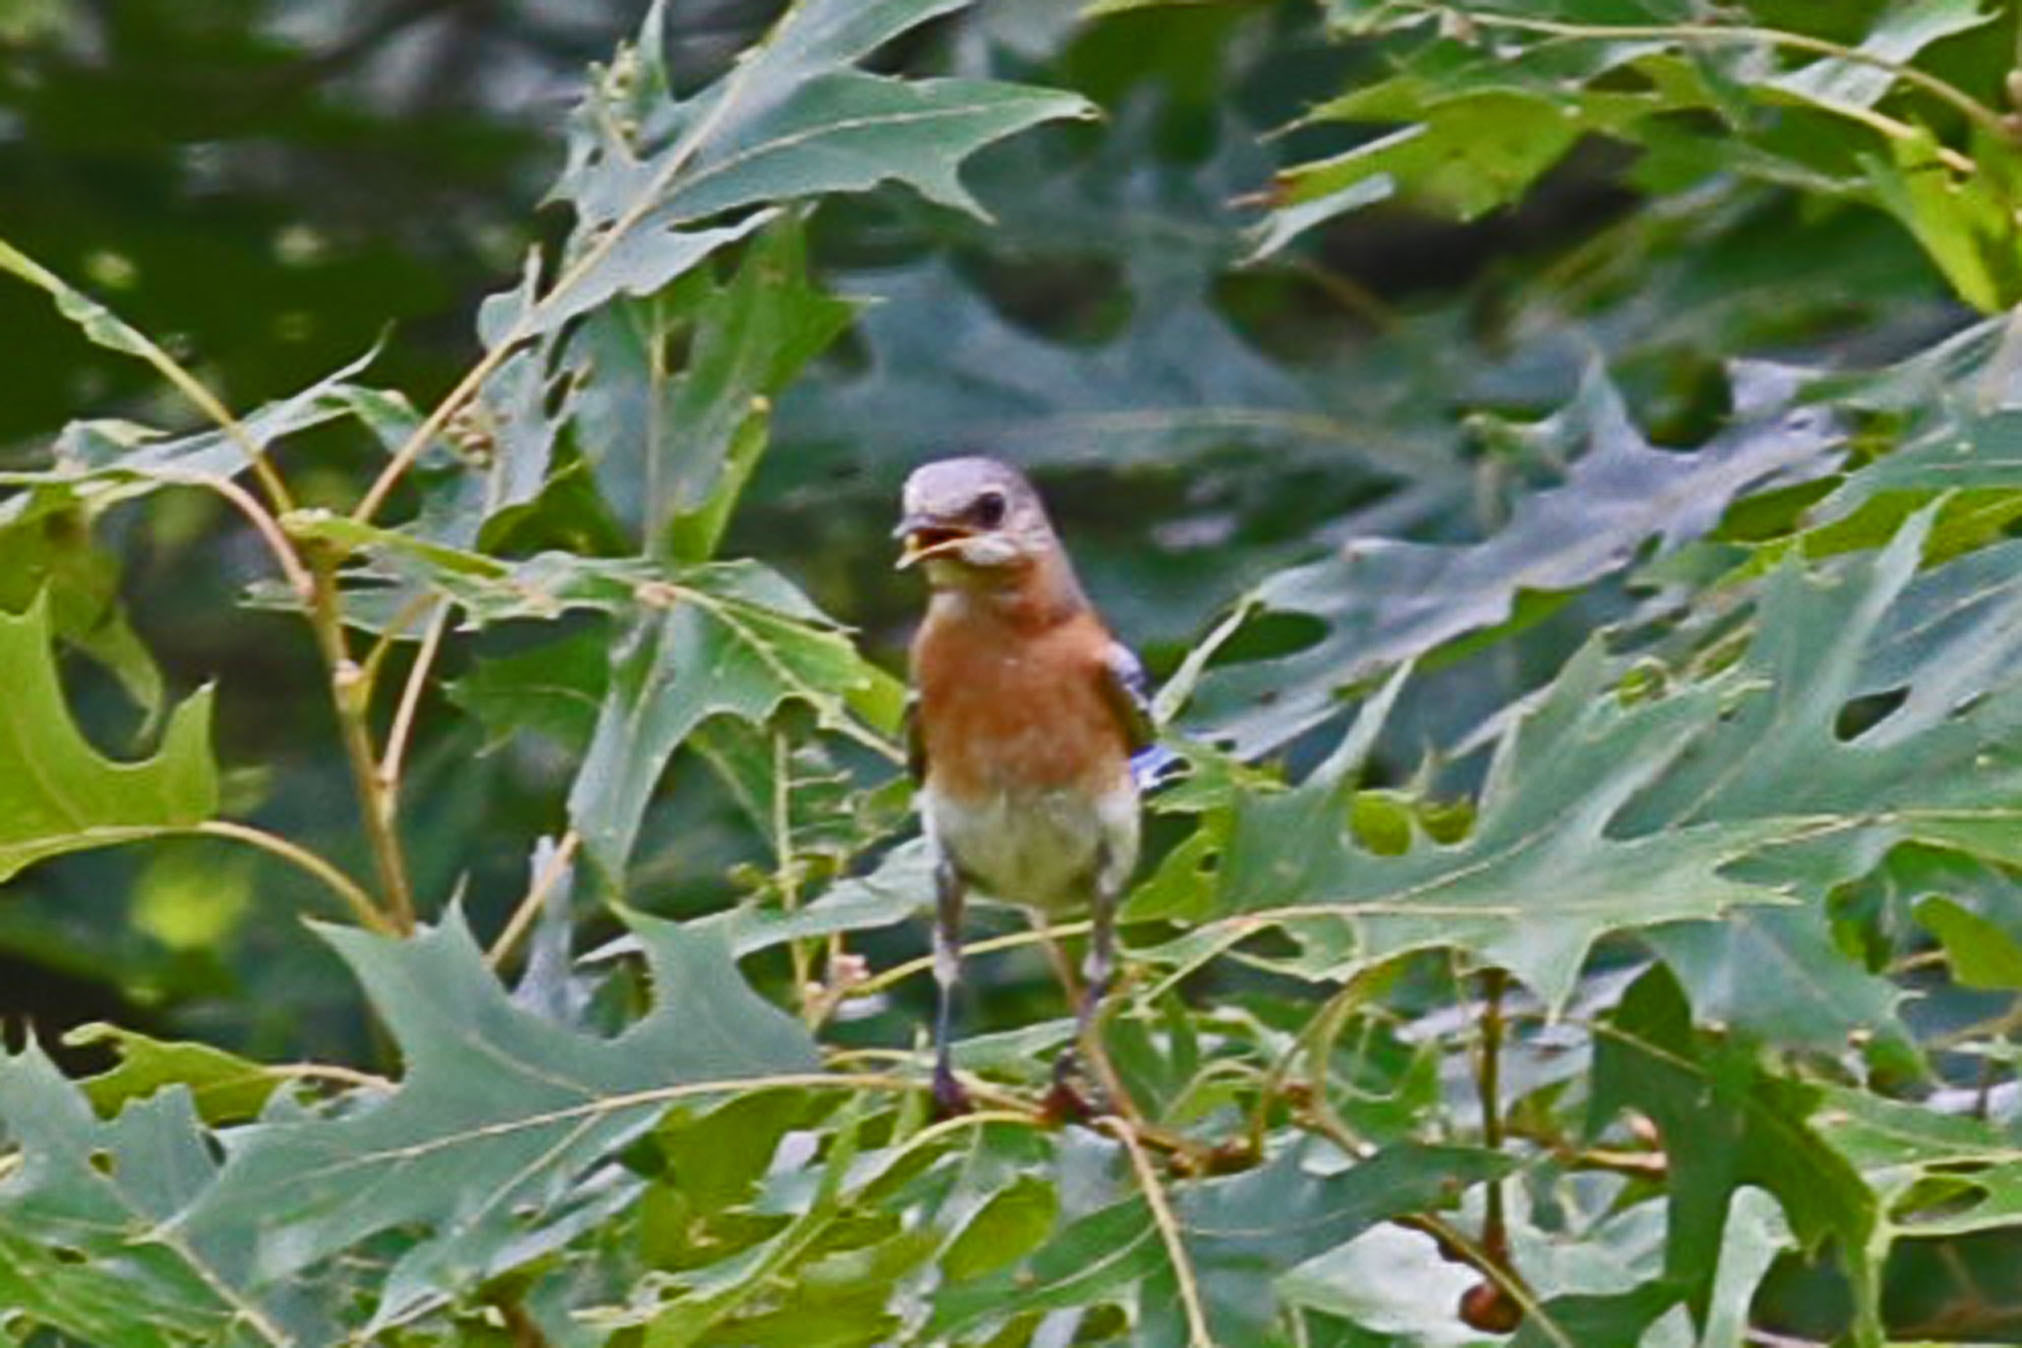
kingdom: Animalia
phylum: Chordata
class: Aves
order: Passeriformes
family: Turdidae
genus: Sialia
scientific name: Sialia sialis
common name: Eastern bluebird
